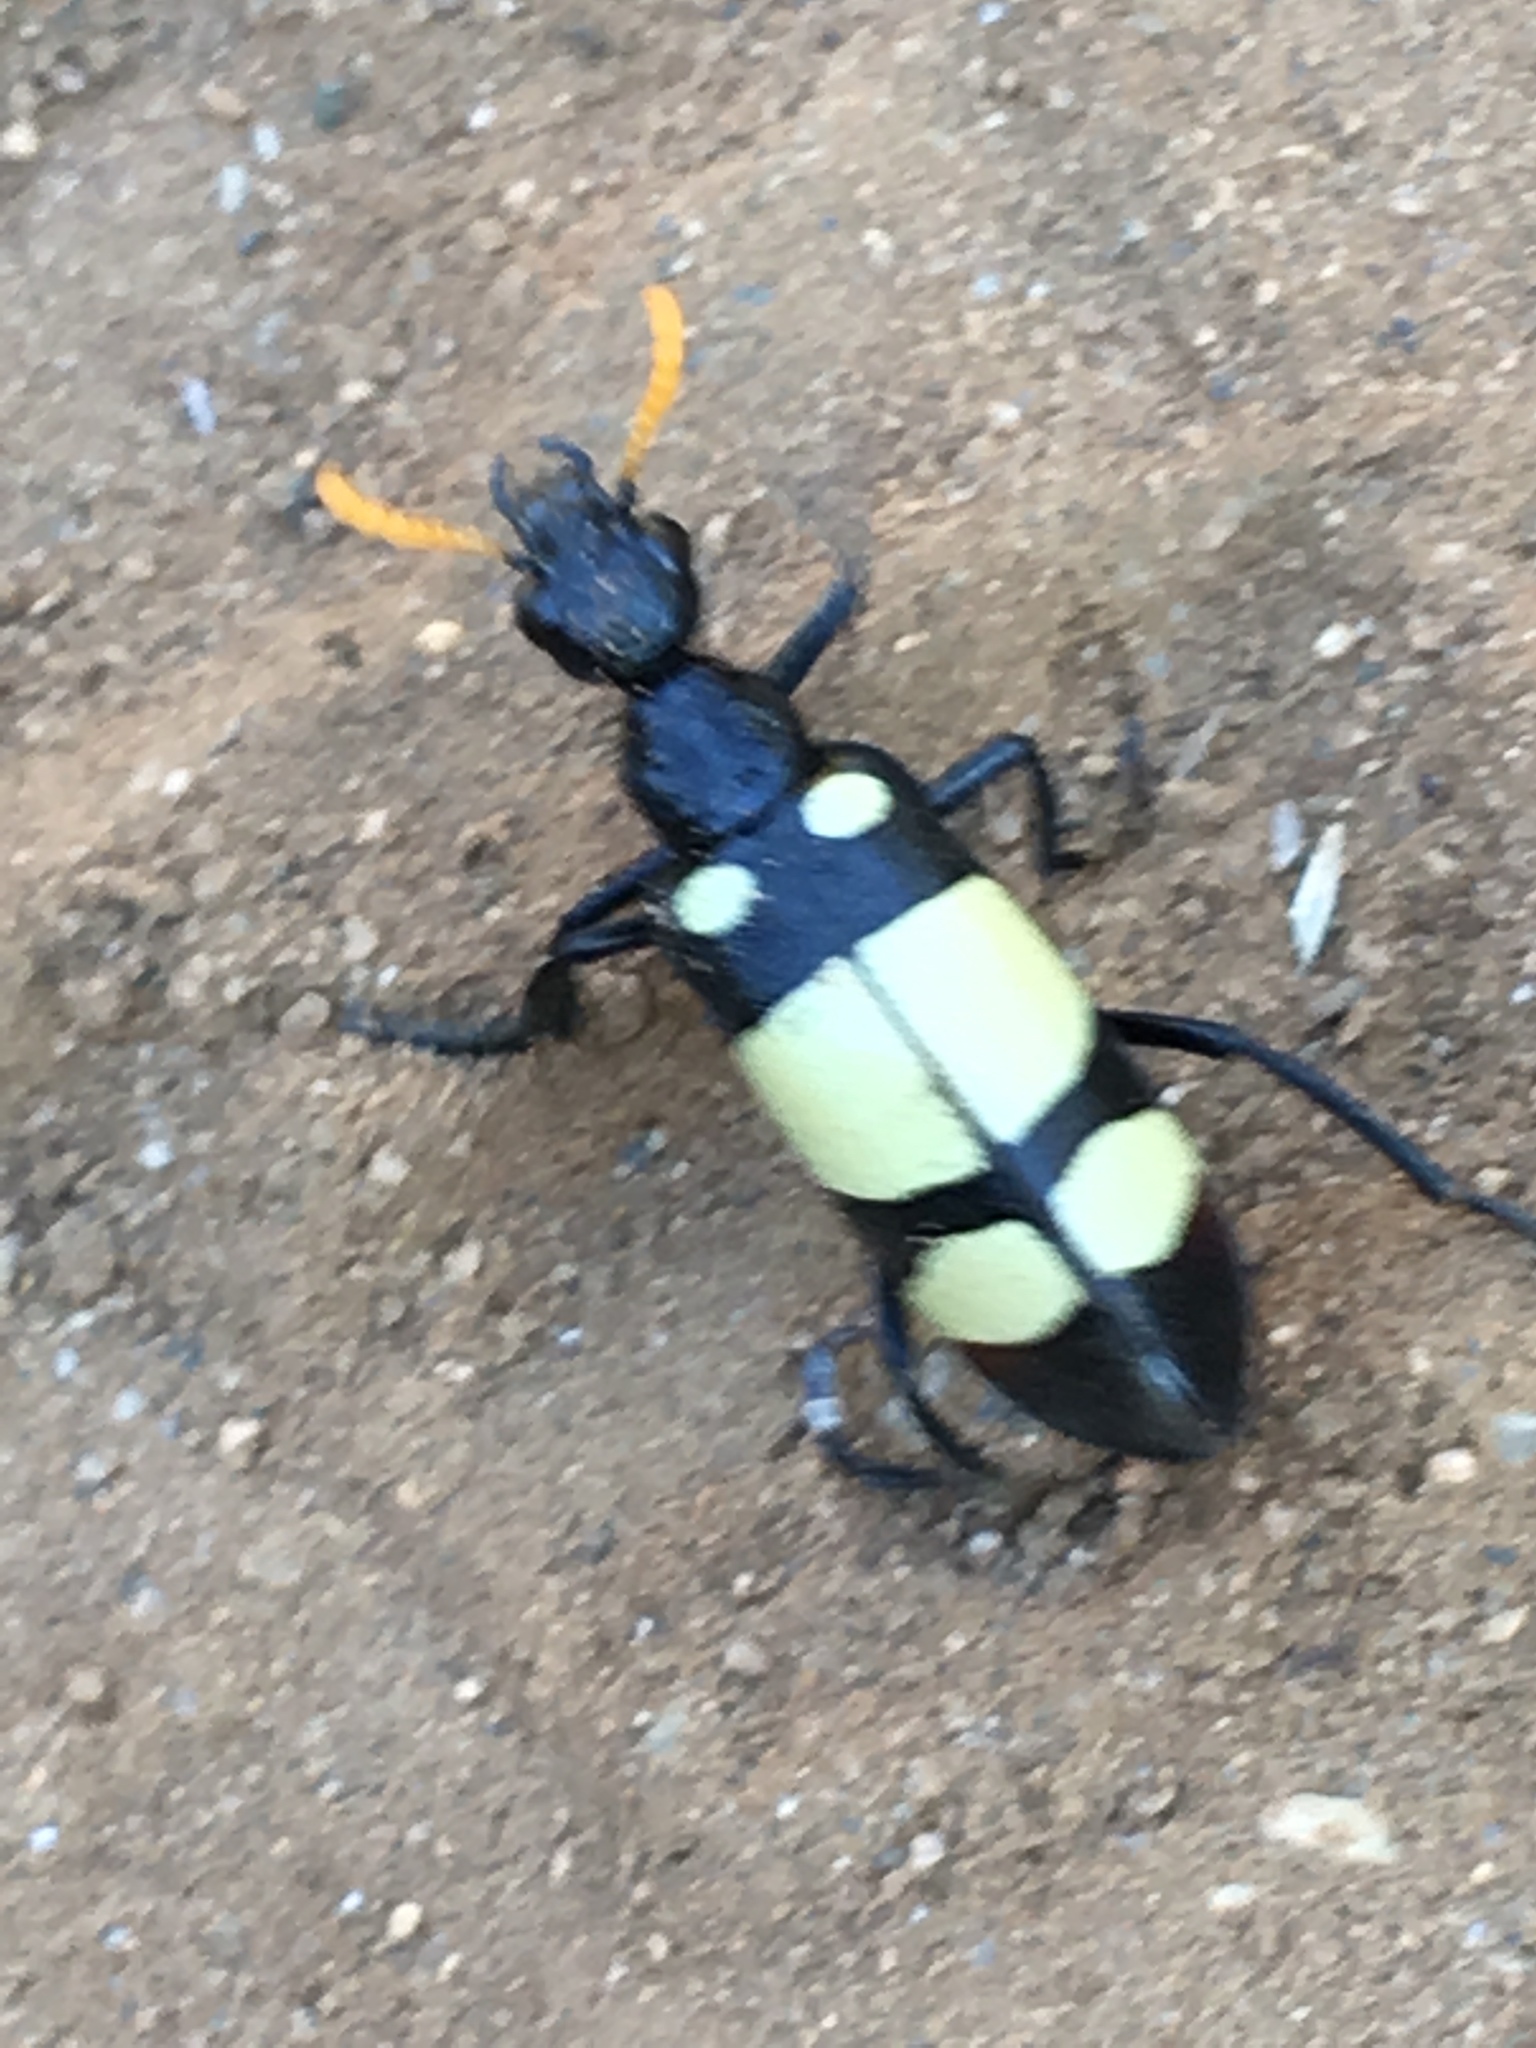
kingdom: Animalia
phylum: Arthropoda
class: Insecta
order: Coleoptera
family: Meloidae
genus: Hycleus
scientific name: Hycleus
